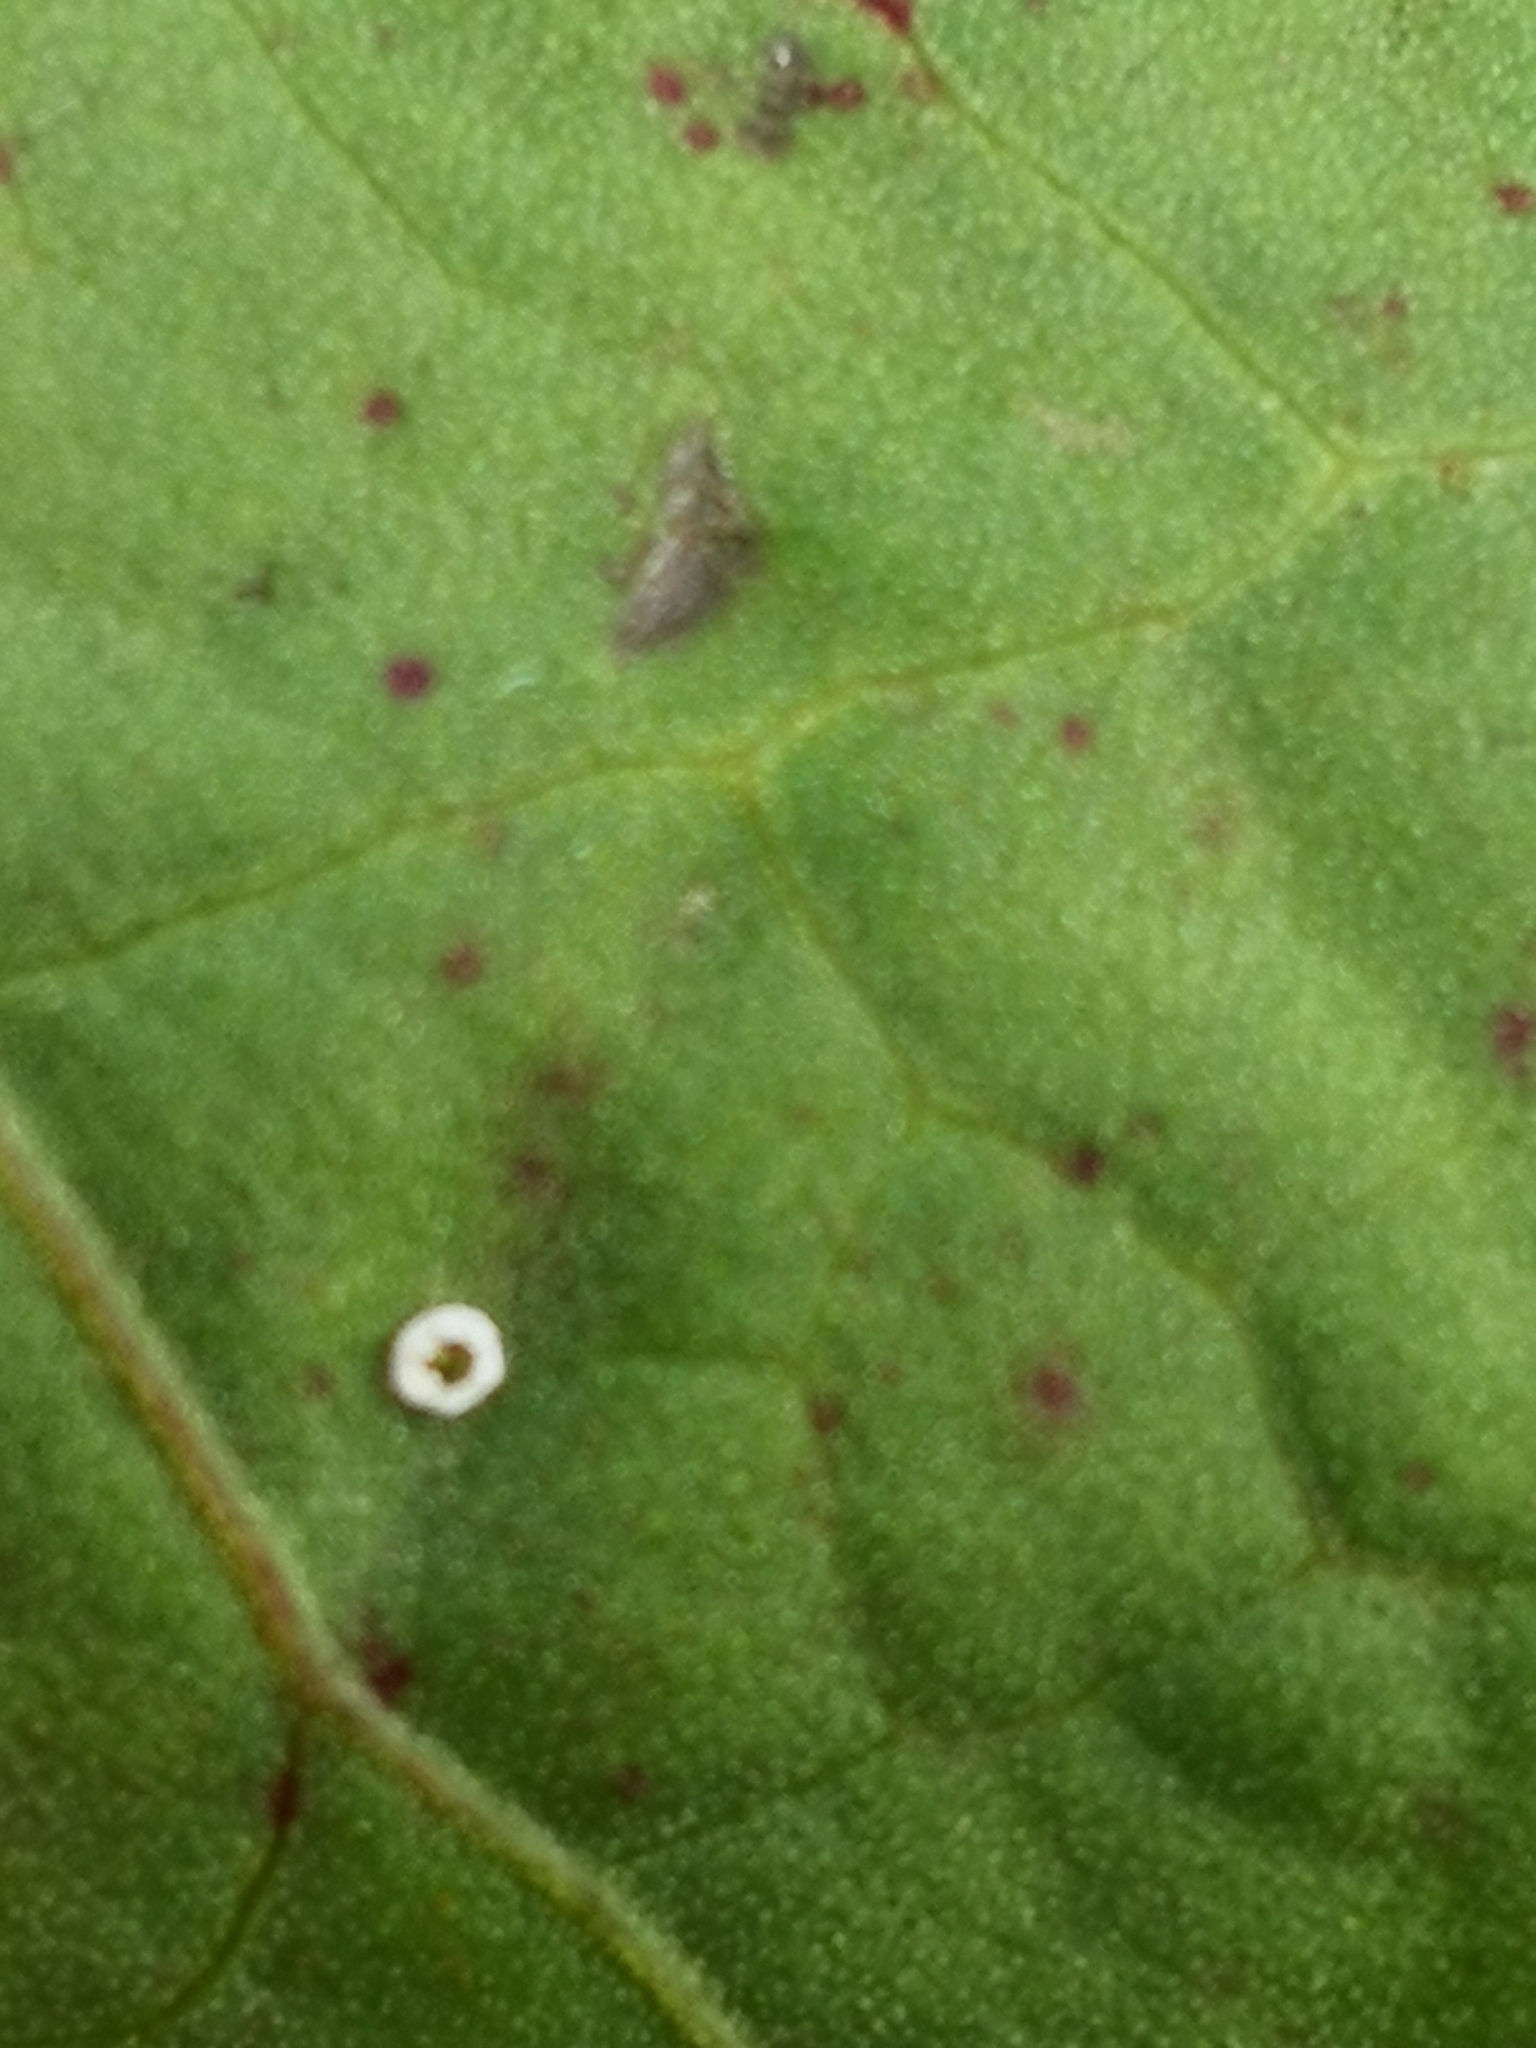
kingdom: Animalia
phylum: Arthropoda
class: Insecta
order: Lepidoptera
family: Lycaenidae
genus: Lycaena
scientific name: Lycaena dispar
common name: Large copper
